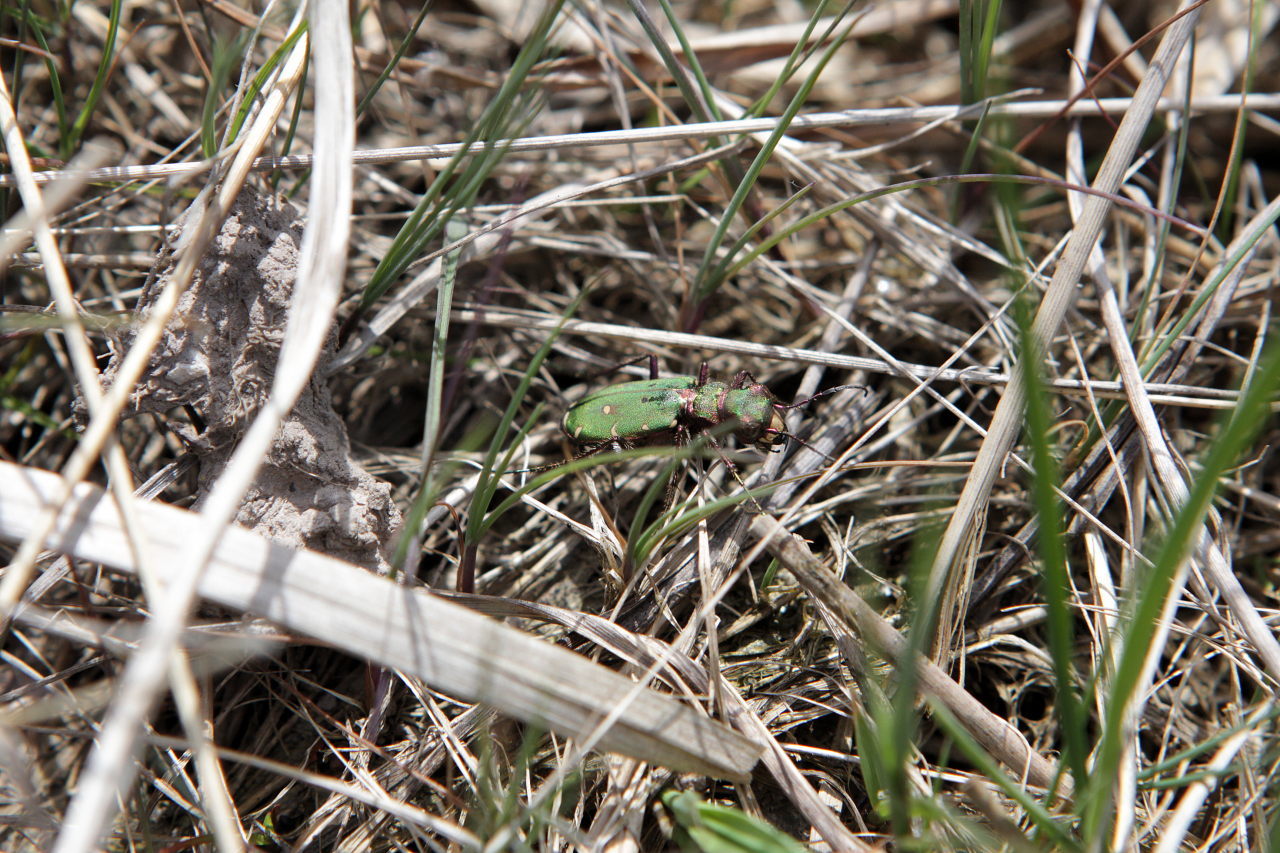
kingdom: Animalia
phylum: Arthropoda
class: Insecta
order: Coleoptera
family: Carabidae
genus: Cicindela
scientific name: Cicindela campestris
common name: Common tiger beetle
